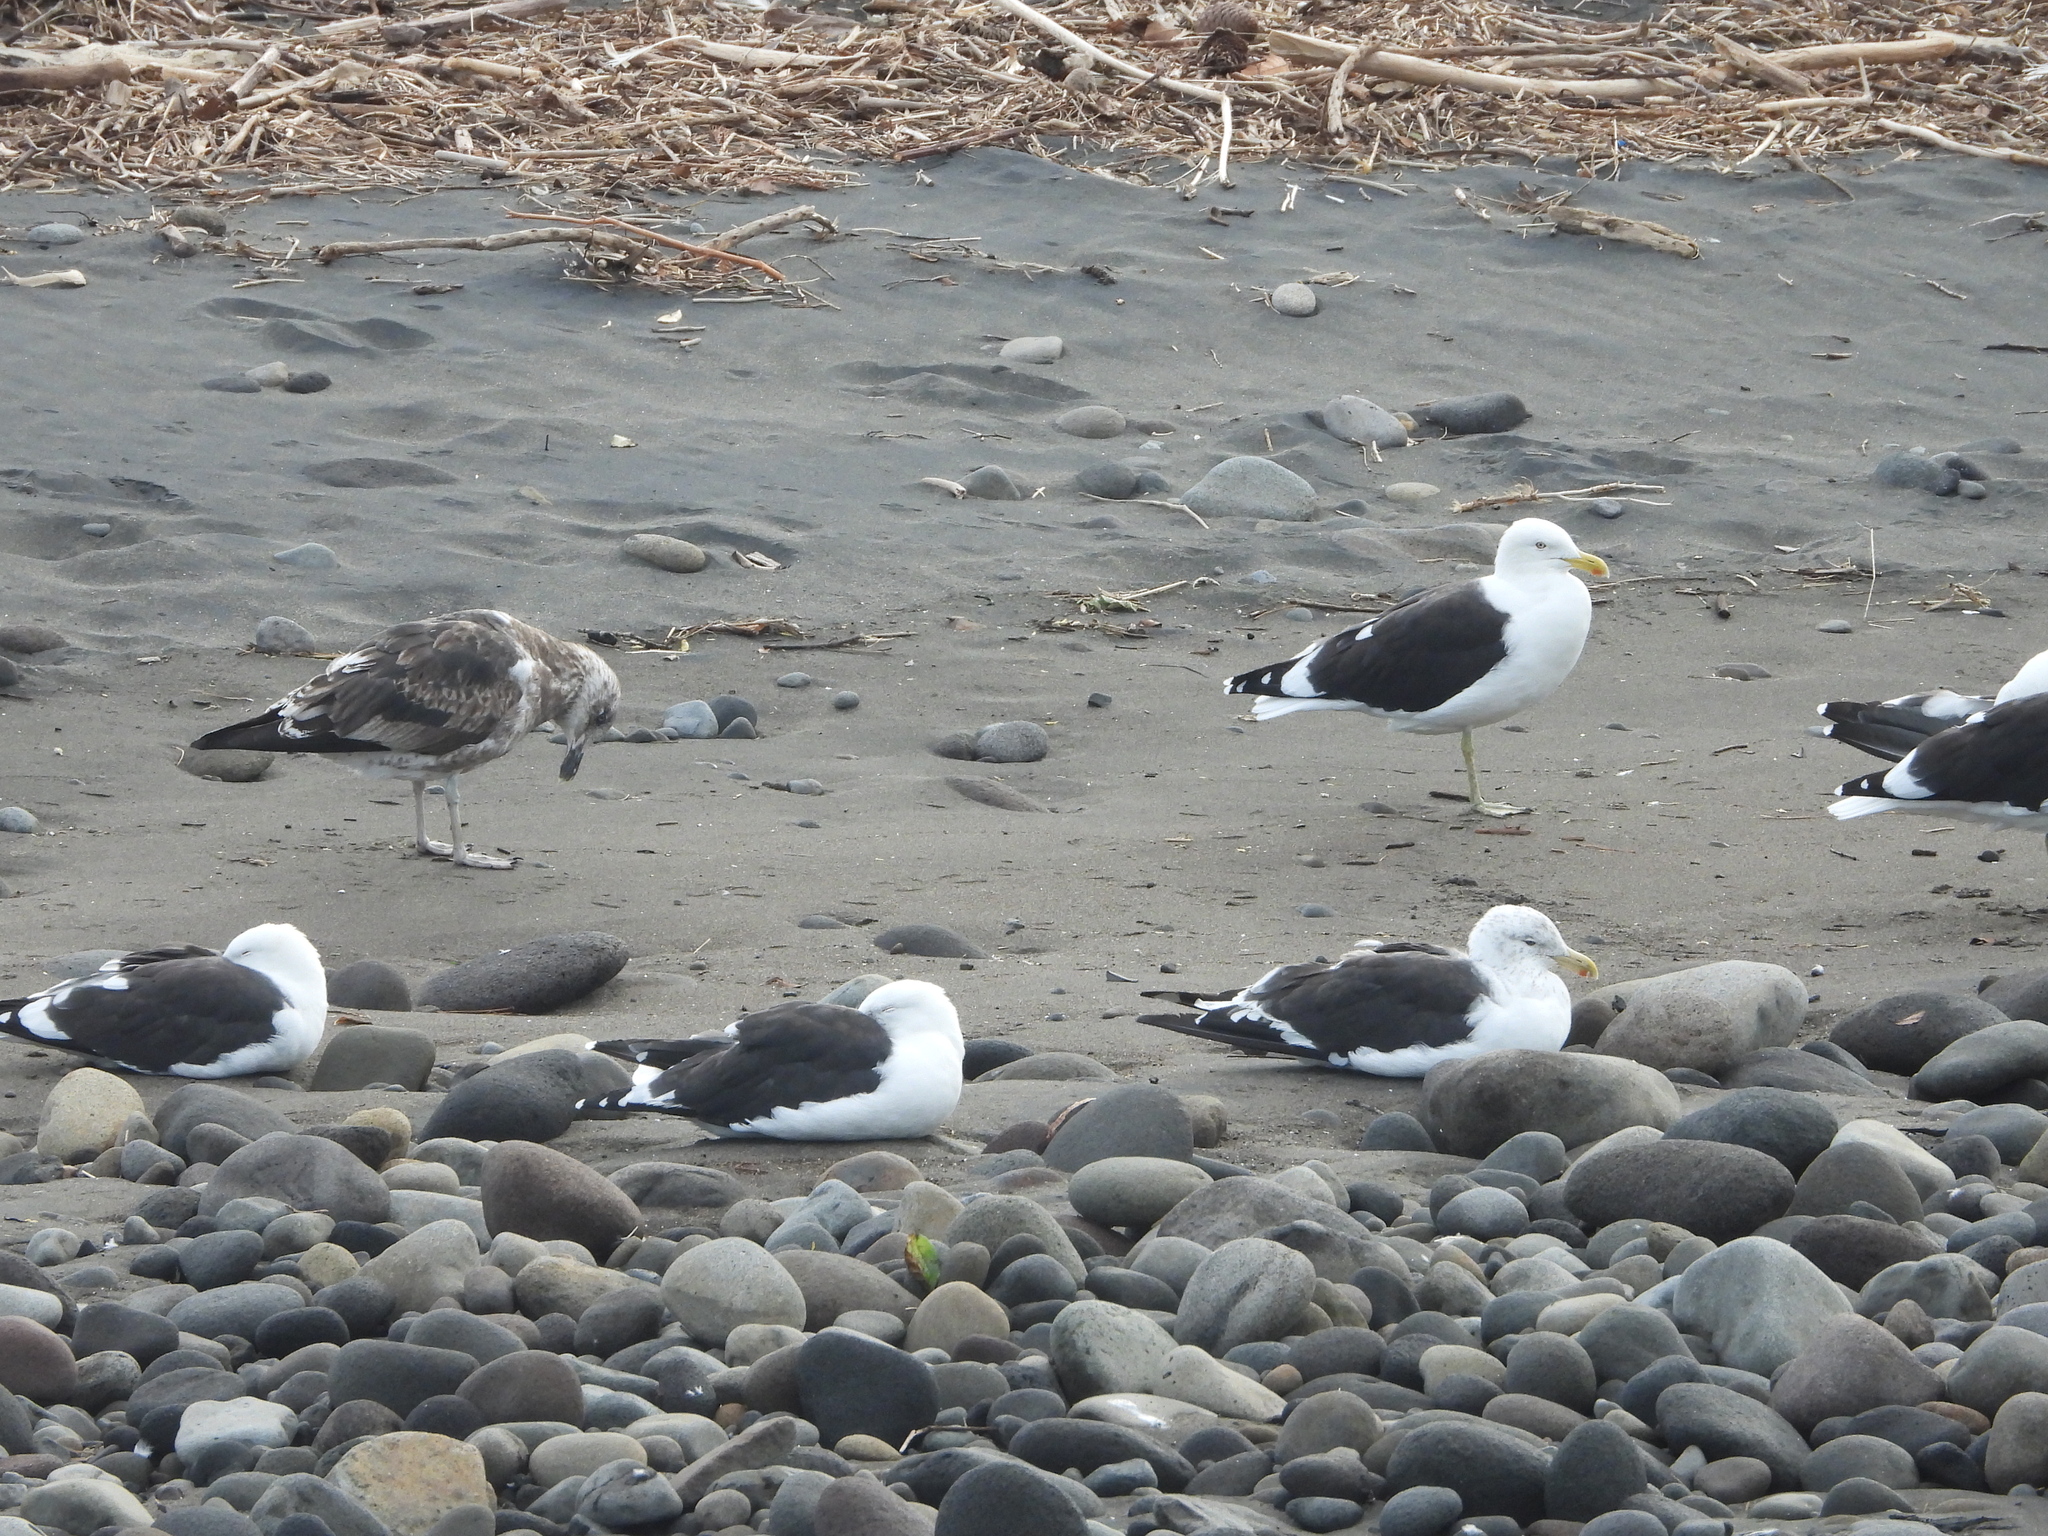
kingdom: Animalia
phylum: Chordata
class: Aves
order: Charadriiformes
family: Laridae
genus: Larus
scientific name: Larus dominicanus
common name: Kelp gull
